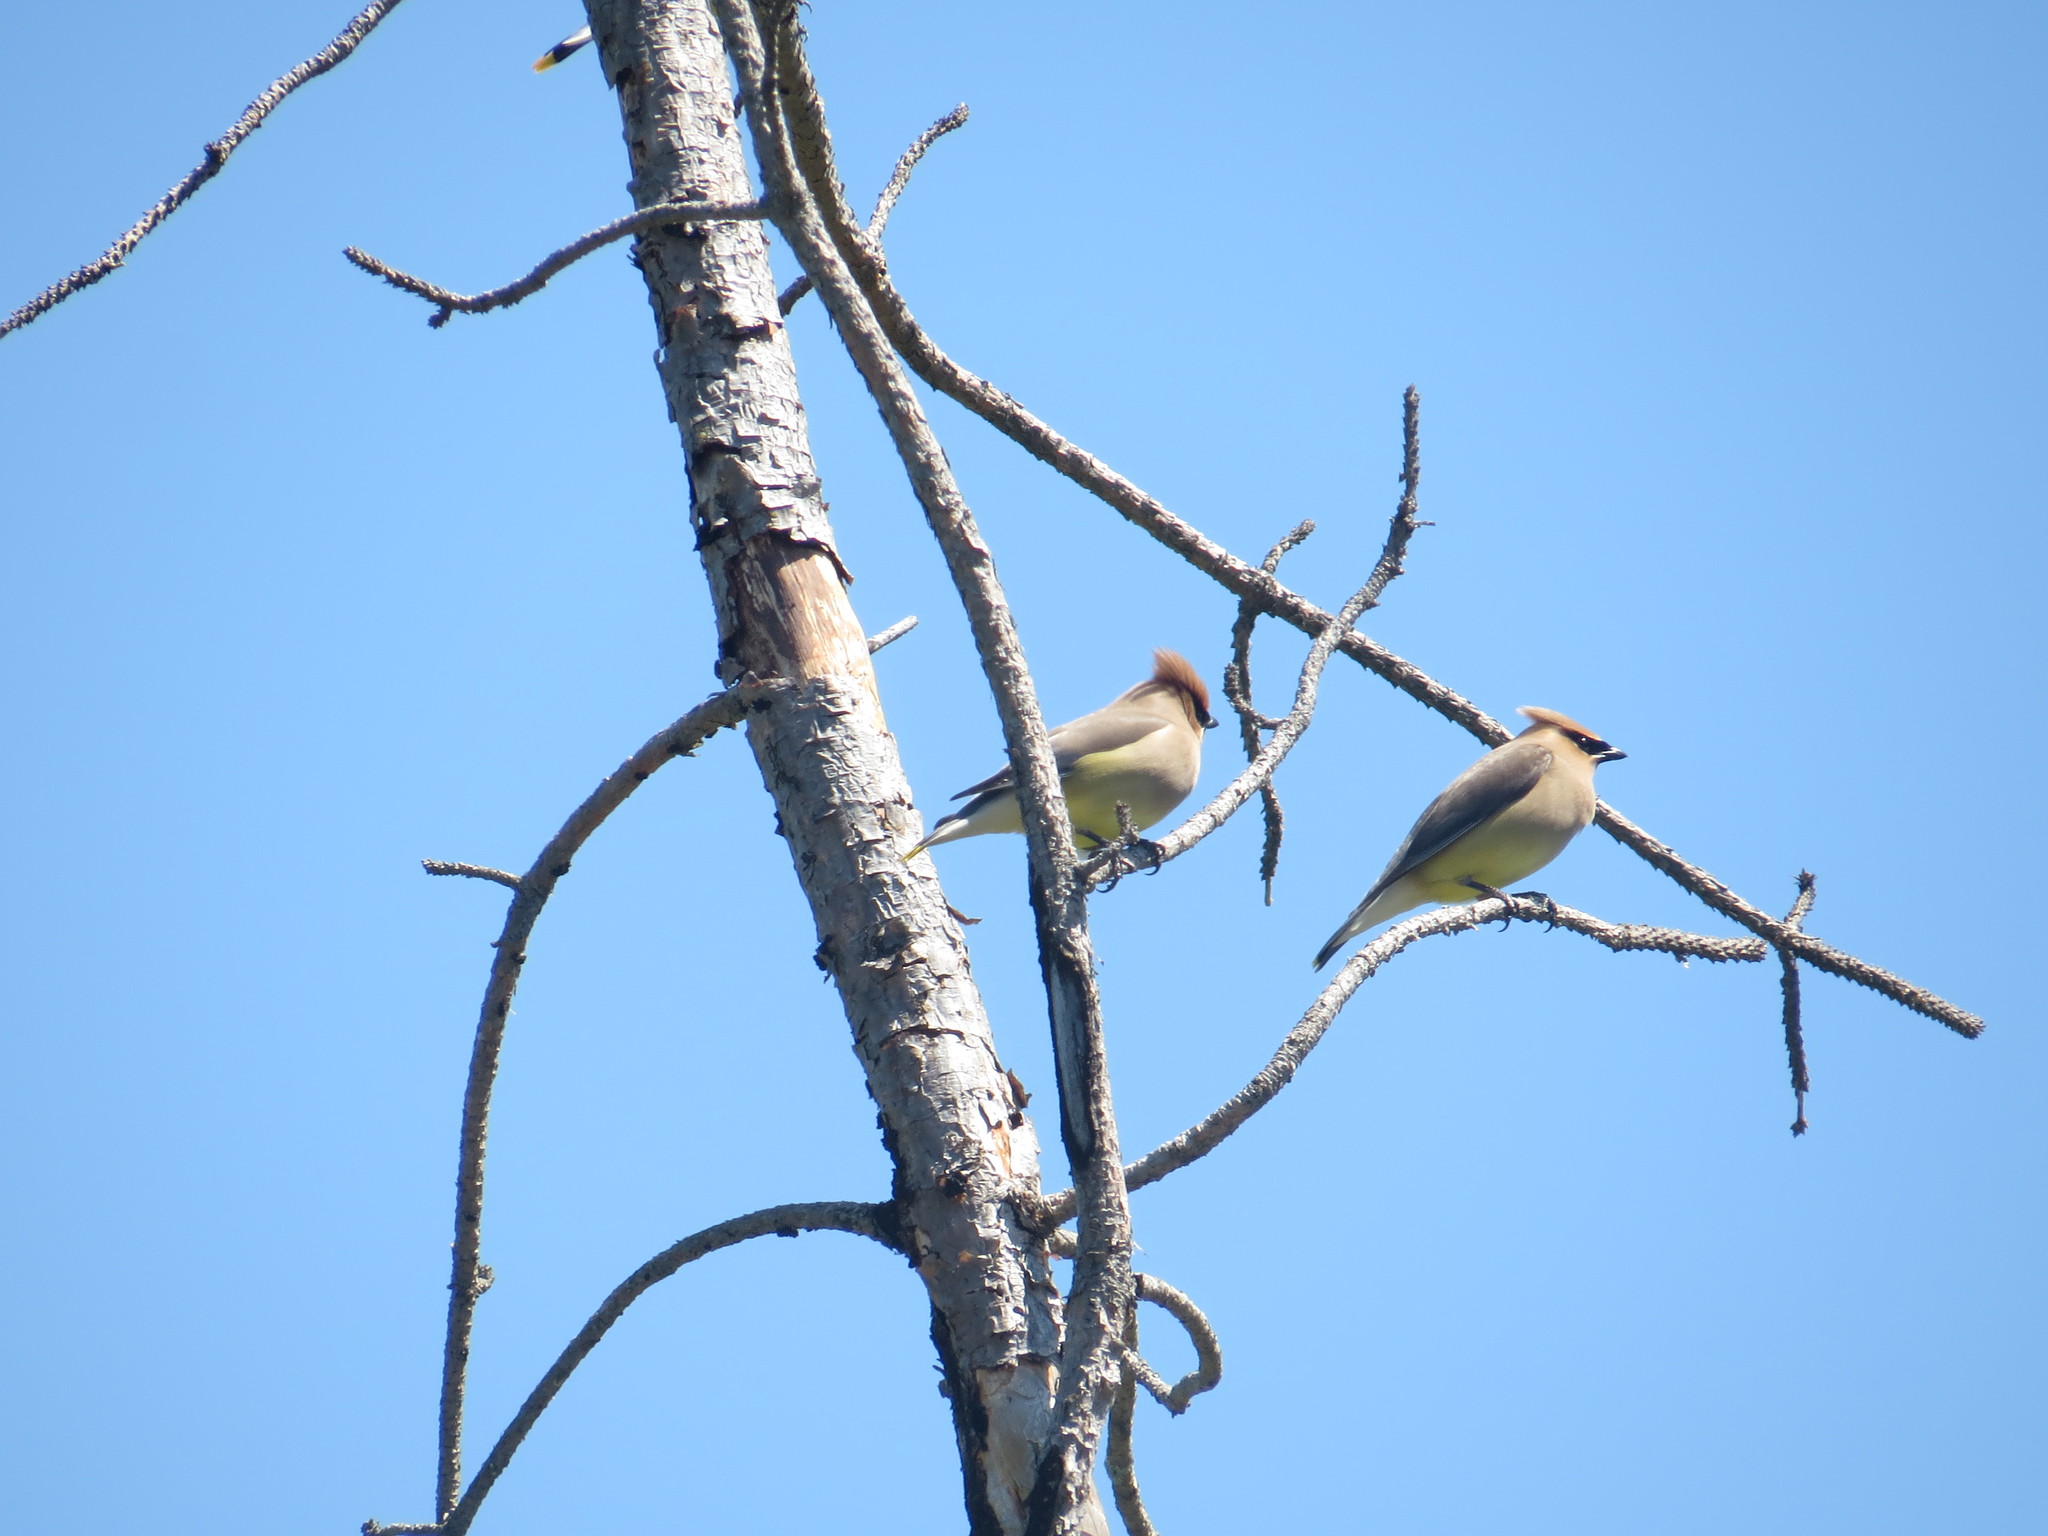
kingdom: Animalia
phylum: Chordata
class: Aves
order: Passeriformes
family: Bombycillidae
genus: Bombycilla
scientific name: Bombycilla cedrorum
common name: Cedar waxwing
